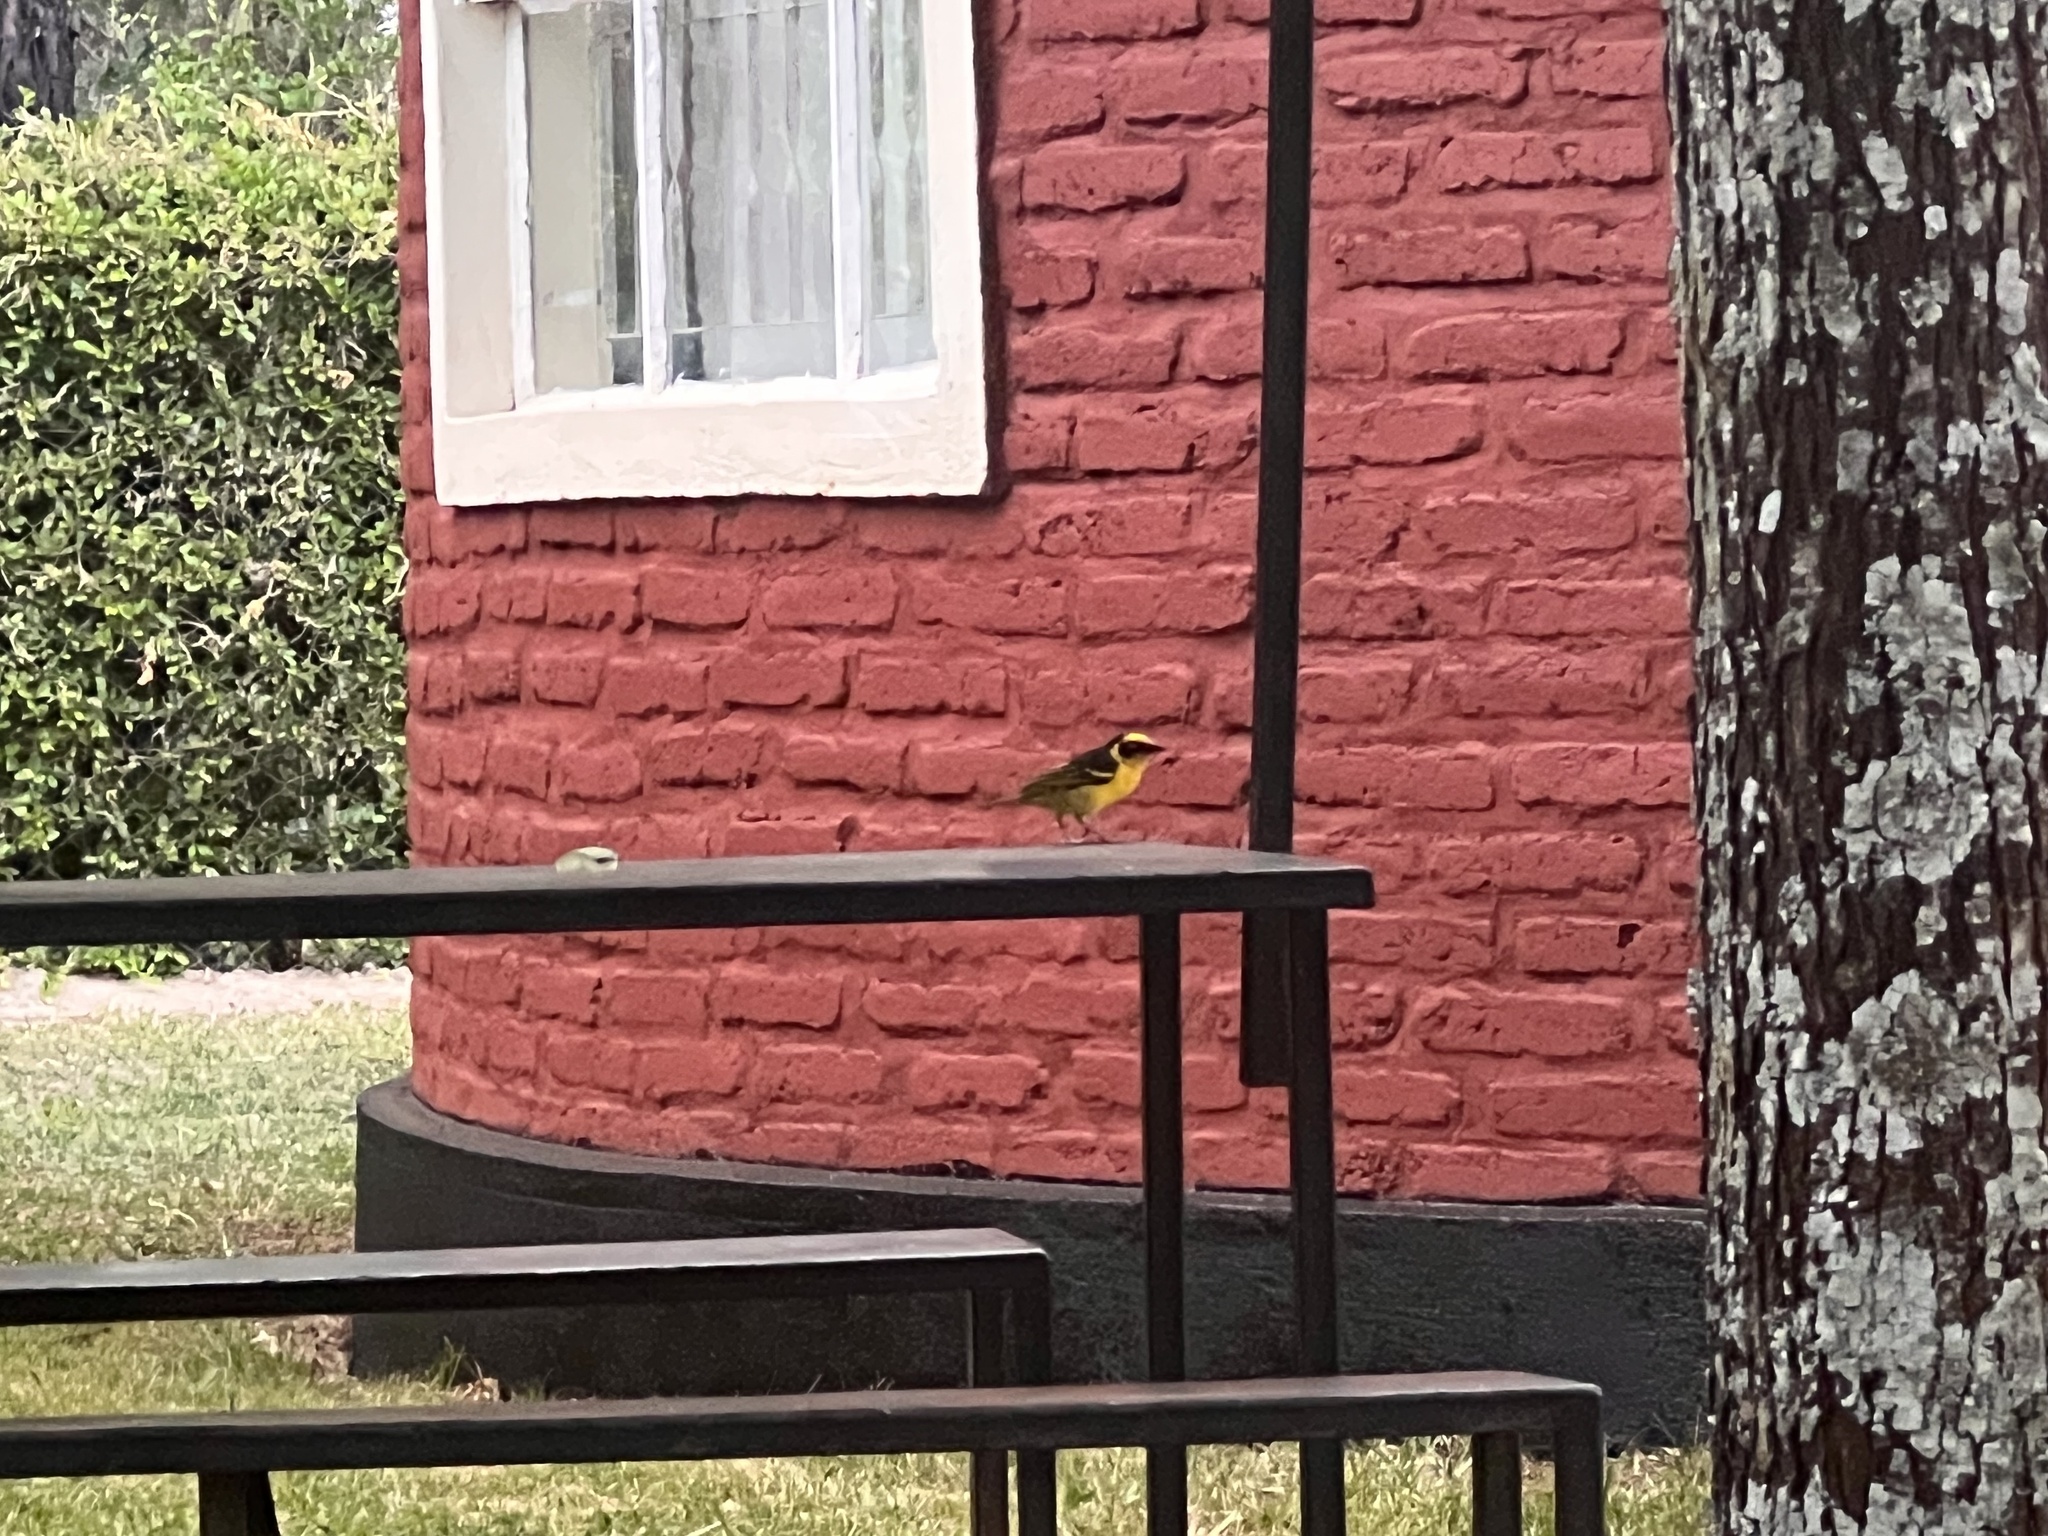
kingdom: Animalia
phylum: Chordata
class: Aves
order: Passeriformes
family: Ploceidae
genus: Ploceus
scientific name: Ploceus baglafecht
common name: Baglafecht weaver
